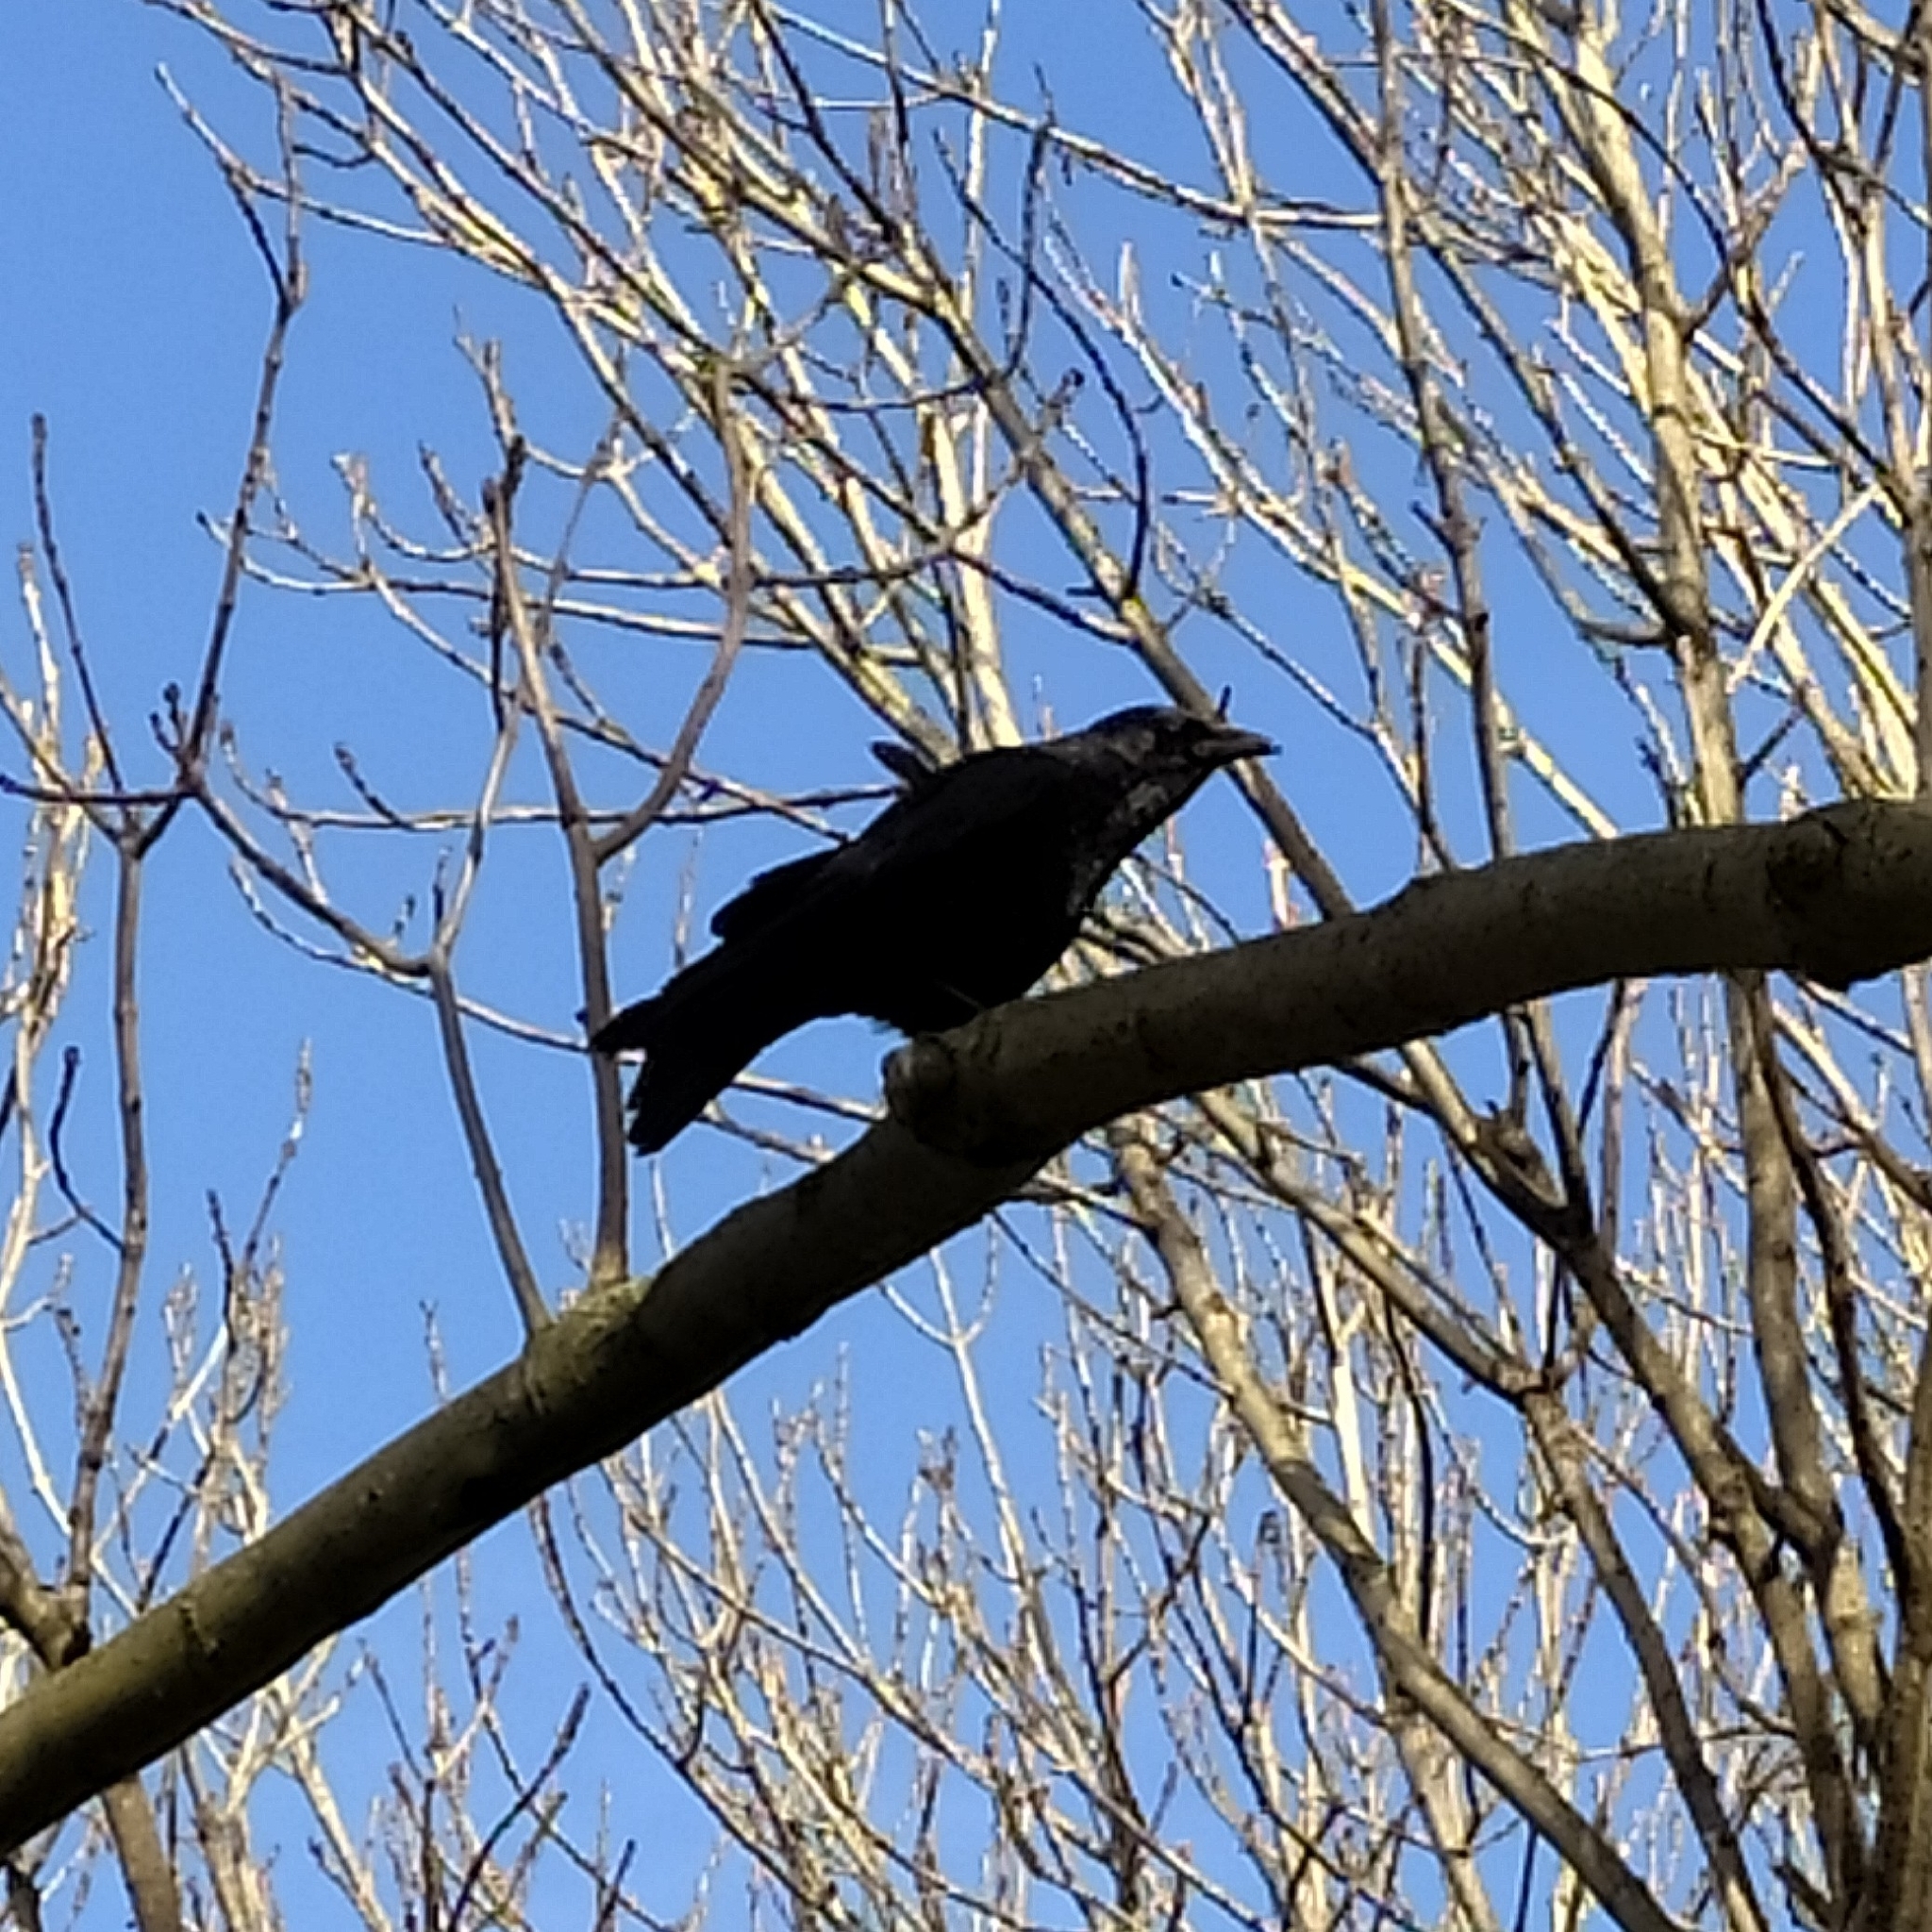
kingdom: Animalia
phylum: Chordata
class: Aves
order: Passeriformes
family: Corvidae
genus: Corvus
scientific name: Corvus corone
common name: Carrion crow
